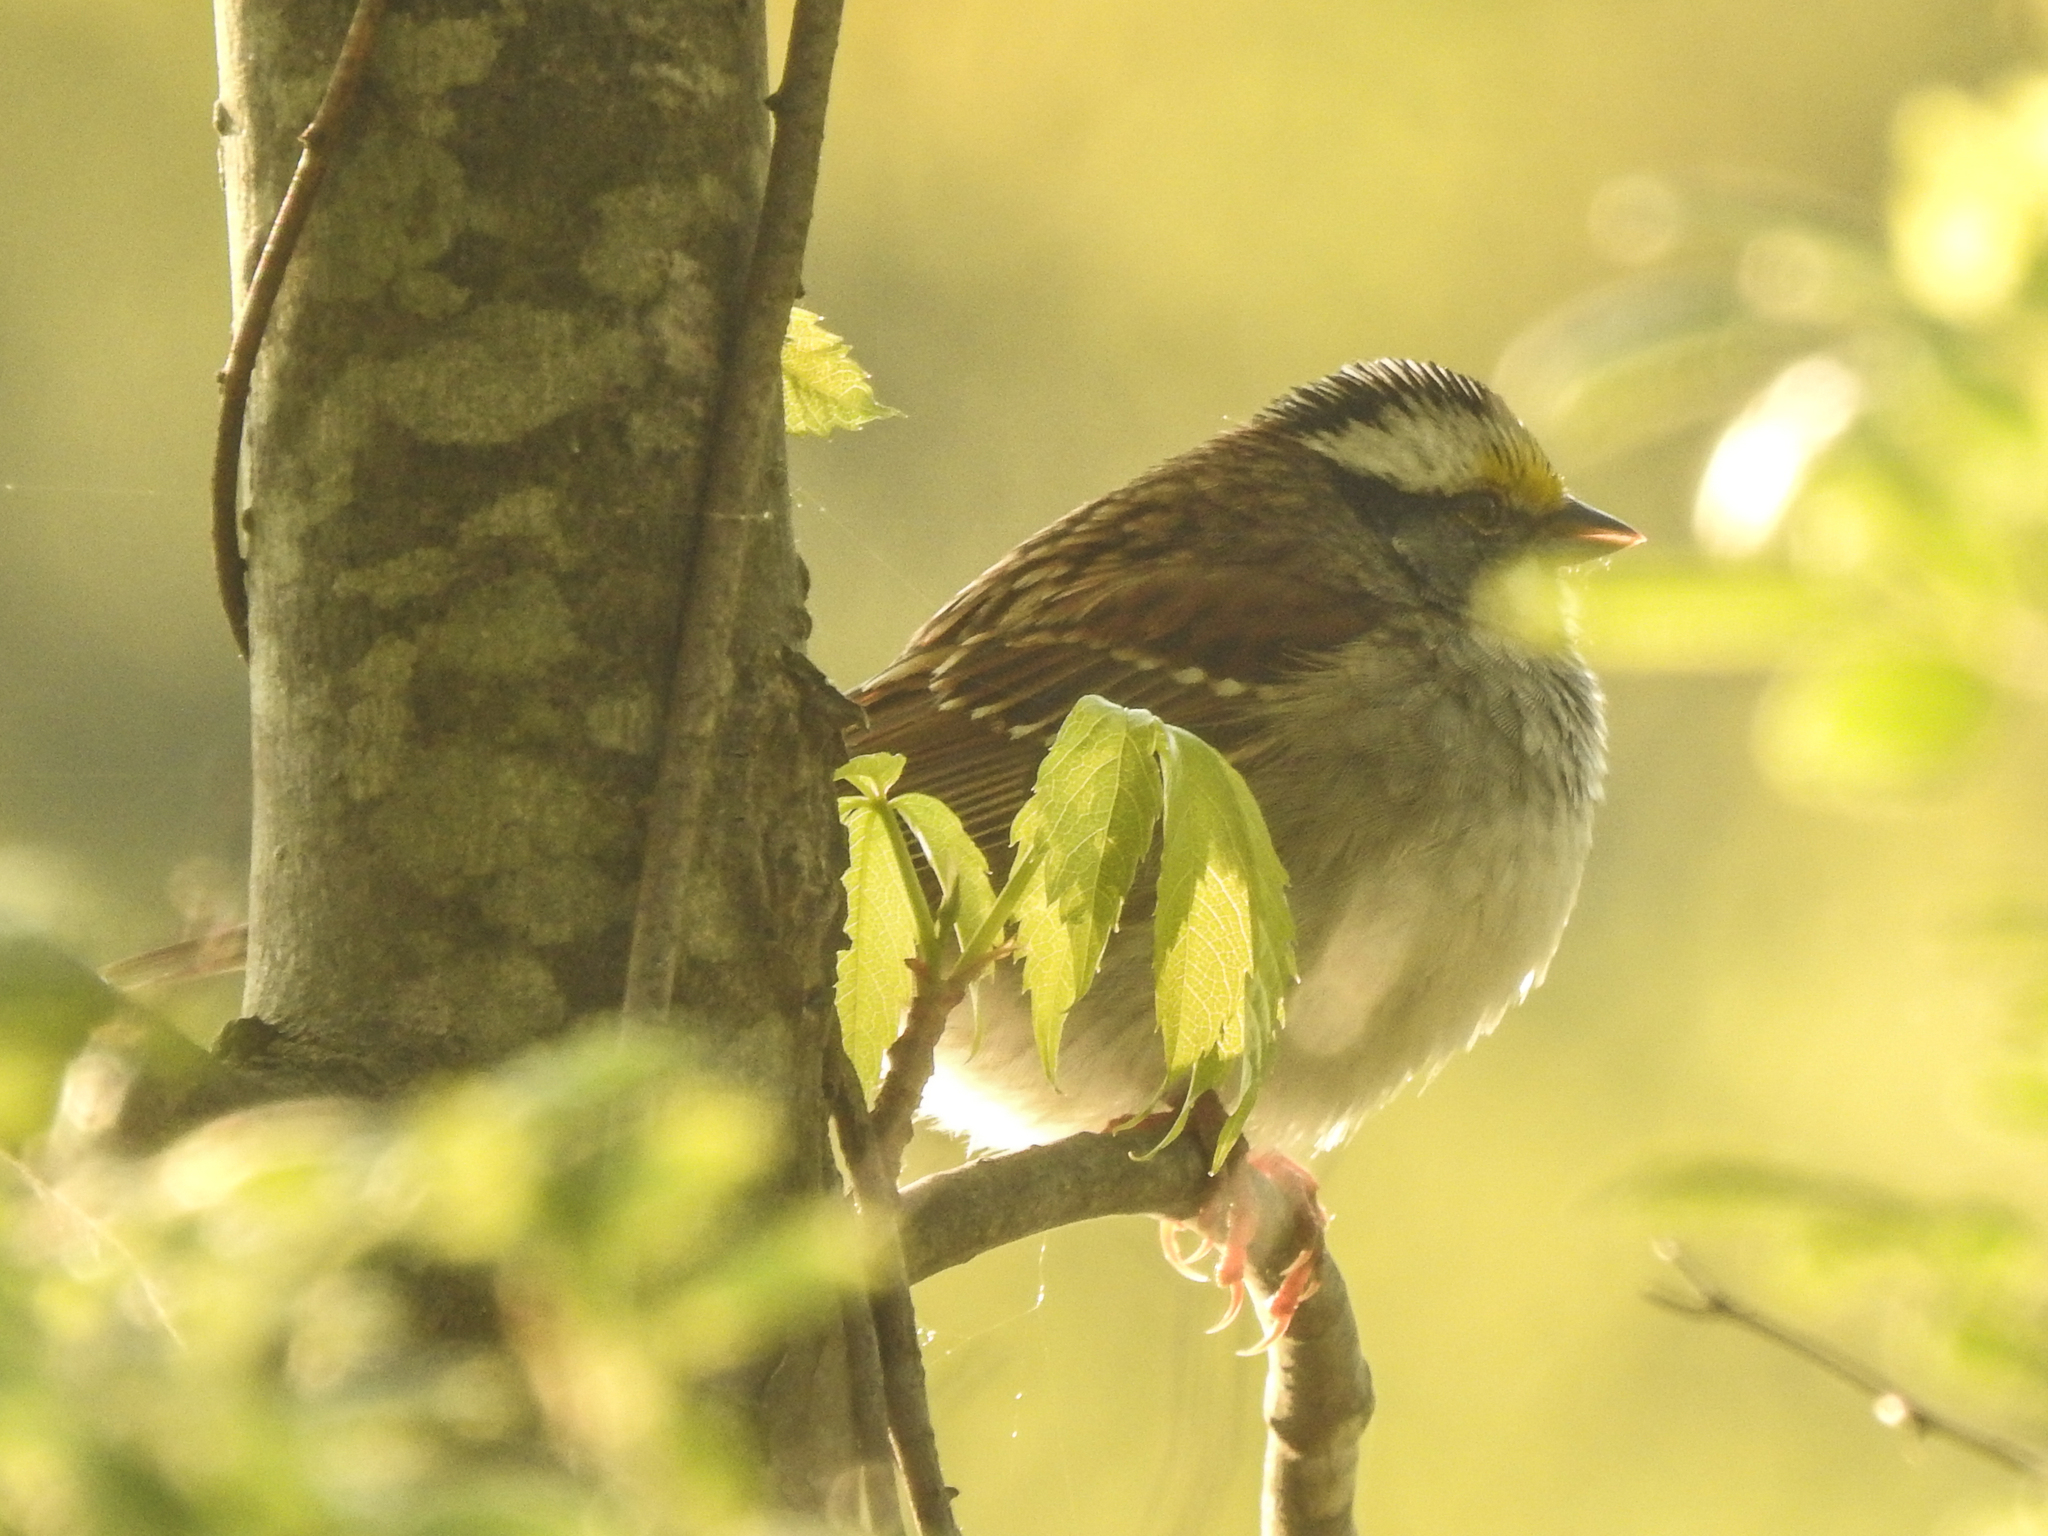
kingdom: Animalia
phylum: Chordata
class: Aves
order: Passeriformes
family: Passerellidae
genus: Zonotrichia
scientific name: Zonotrichia albicollis
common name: White-throated sparrow
